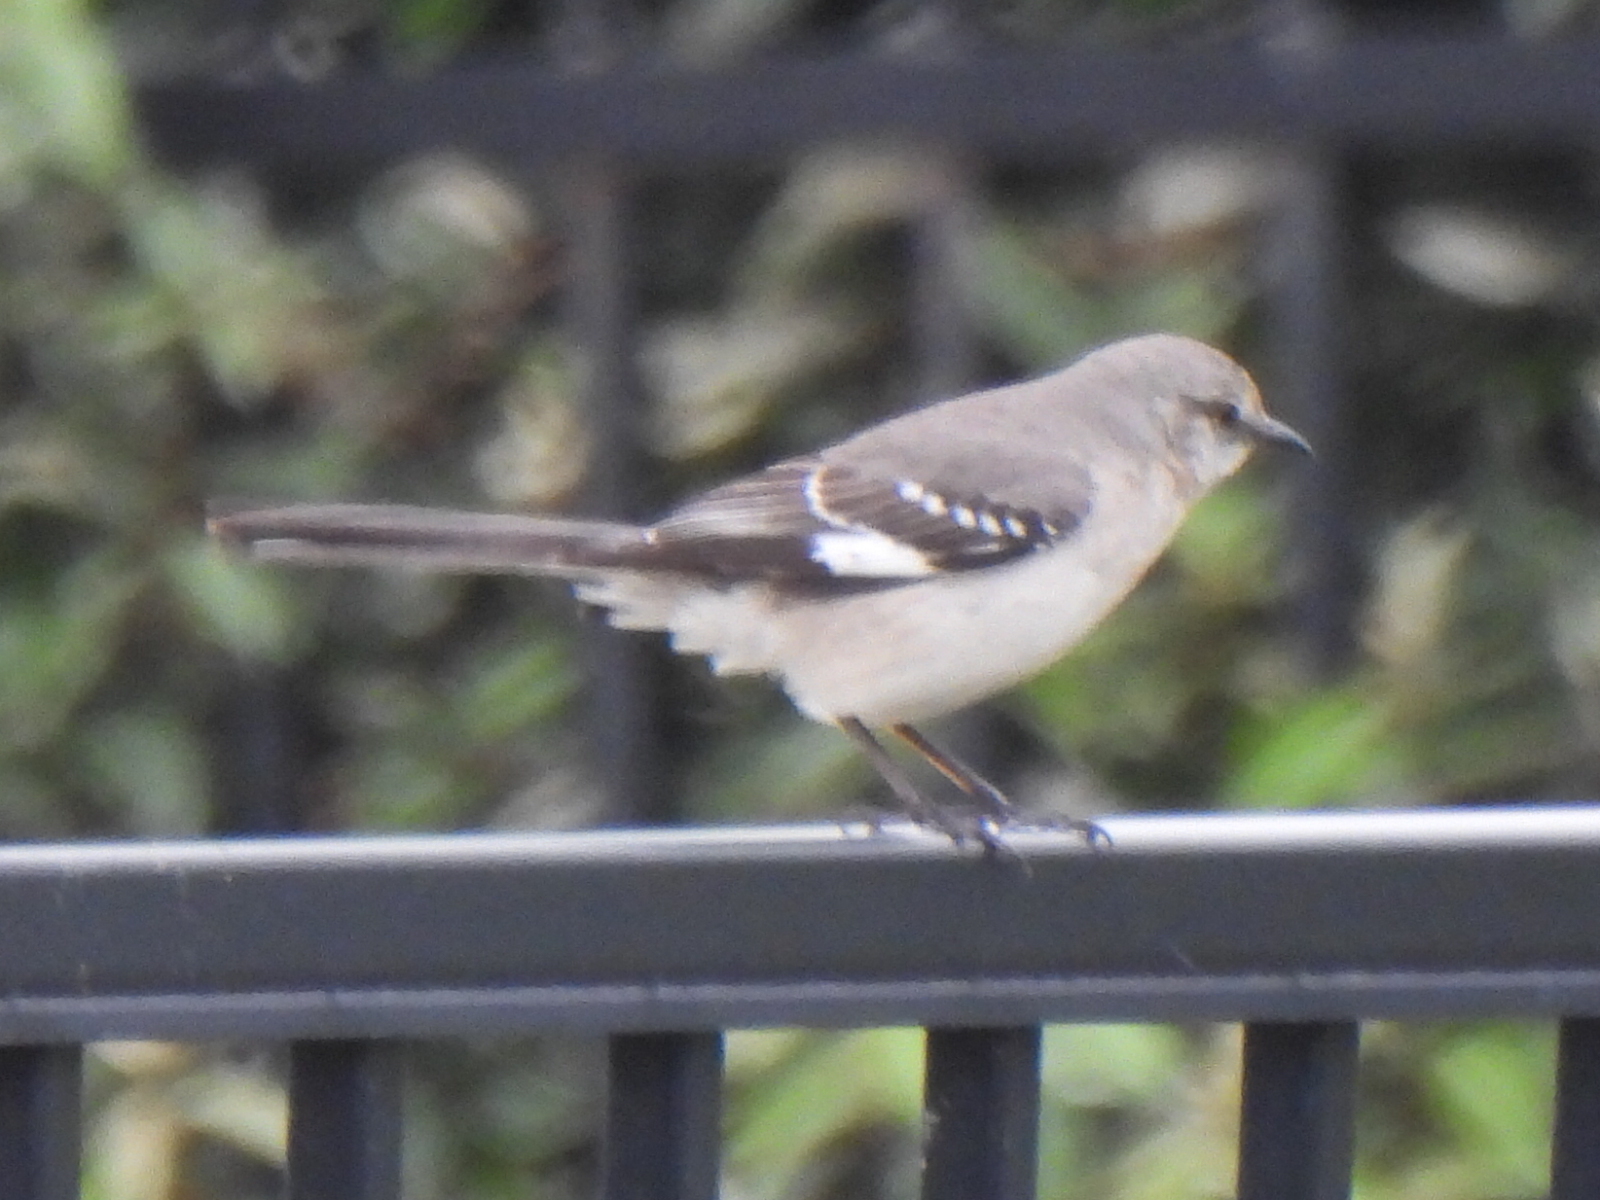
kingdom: Animalia
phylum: Chordata
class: Aves
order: Passeriformes
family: Mimidae
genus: Mimus
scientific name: Mimus polyglottos
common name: Northern mockingbird
